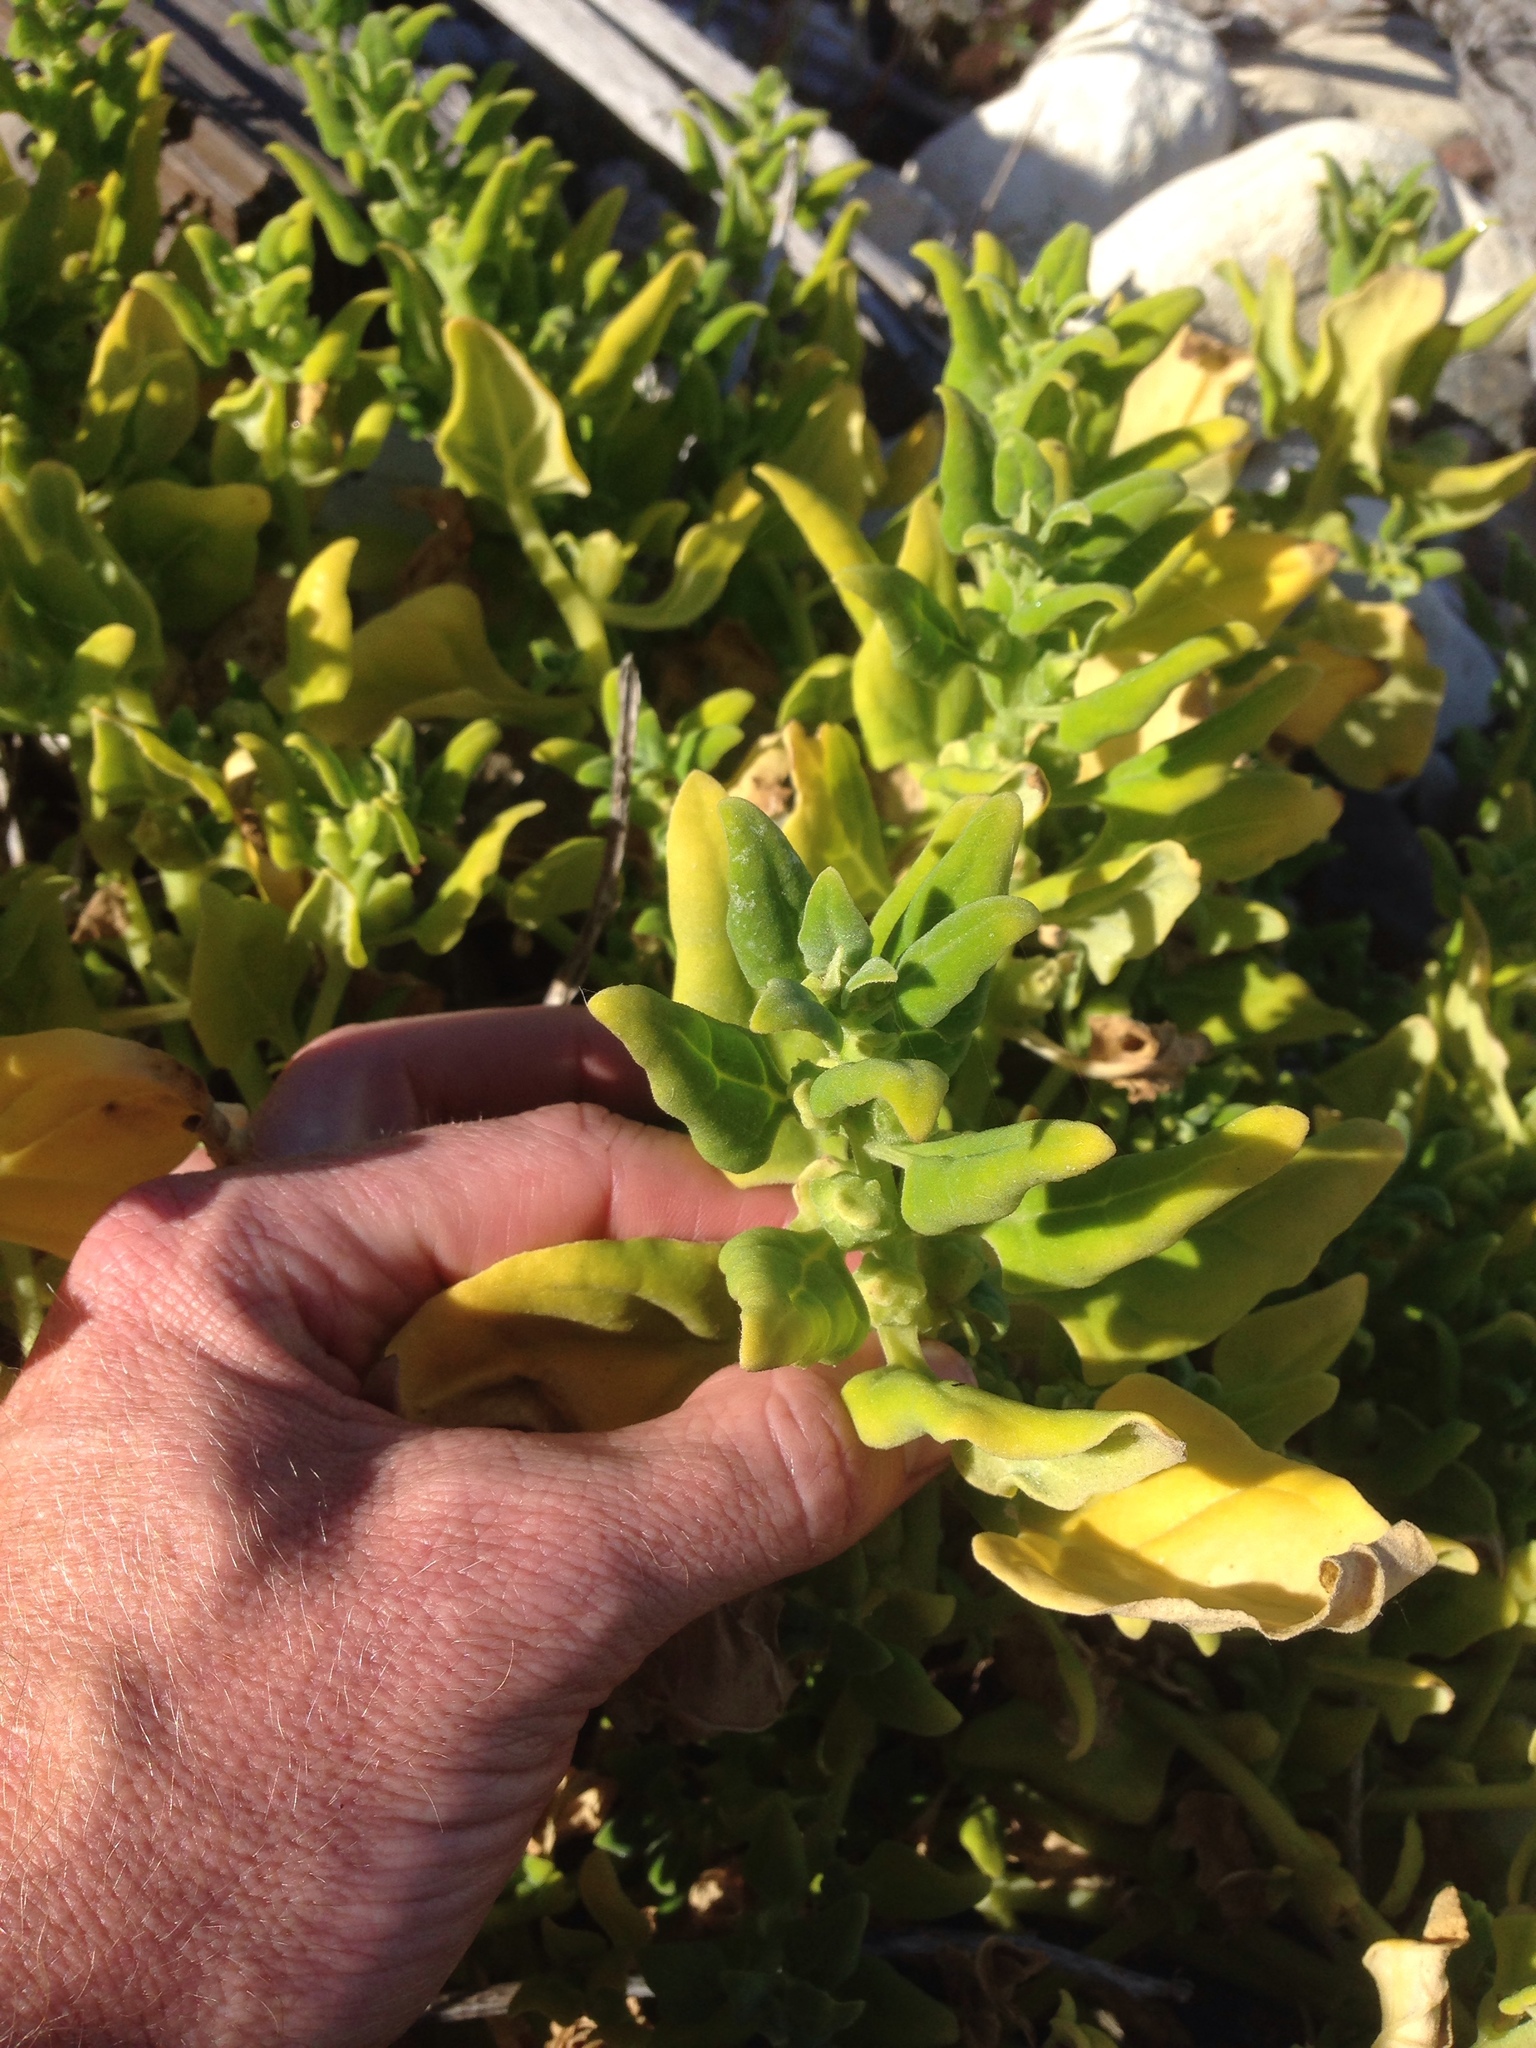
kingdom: Plantae
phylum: Tracheophyta
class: Magnoliopsida
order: Caryophyllales
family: Aizoaceae
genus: Tetragonia
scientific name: Tetragonia tetragonoides
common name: New zealand-spinach
